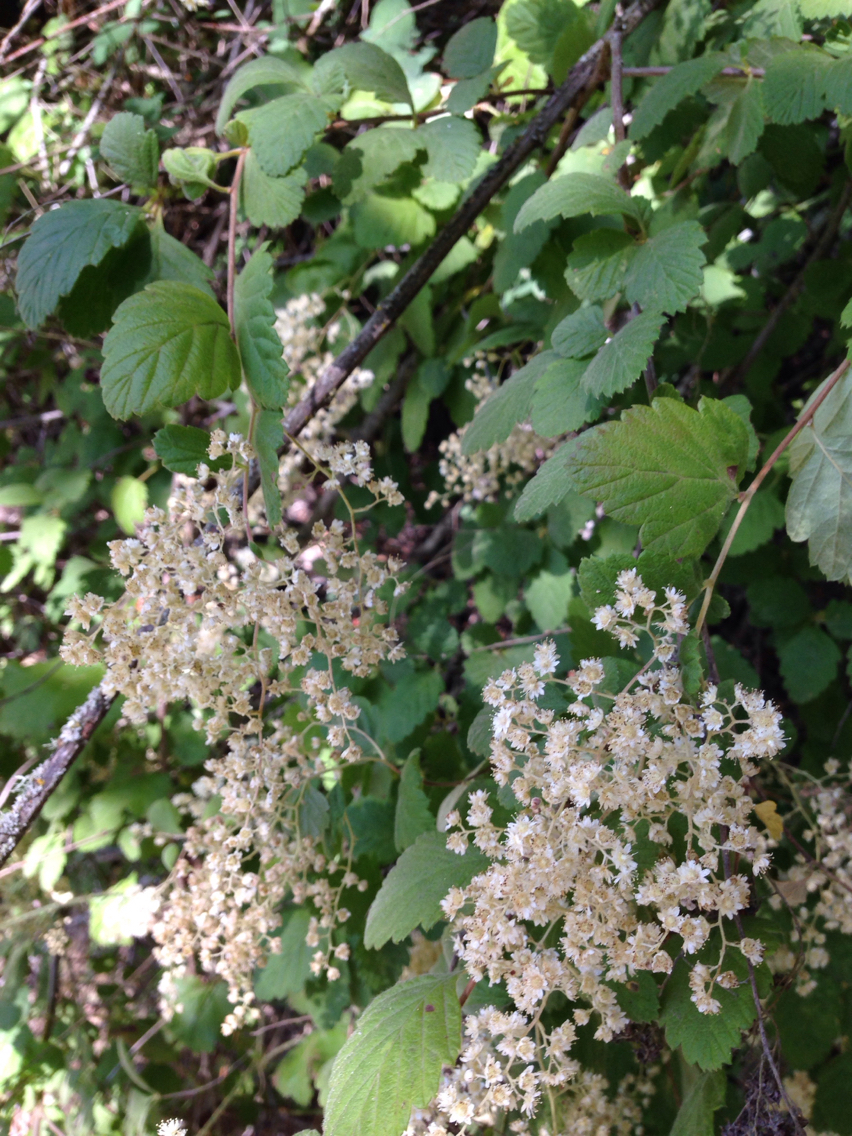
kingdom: Plantae
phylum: Tracheophyta
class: Magnoliopsida
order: Rosales
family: Rosaceae
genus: Holodiscus
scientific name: Holodiscus discolor
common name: Oceanspray
